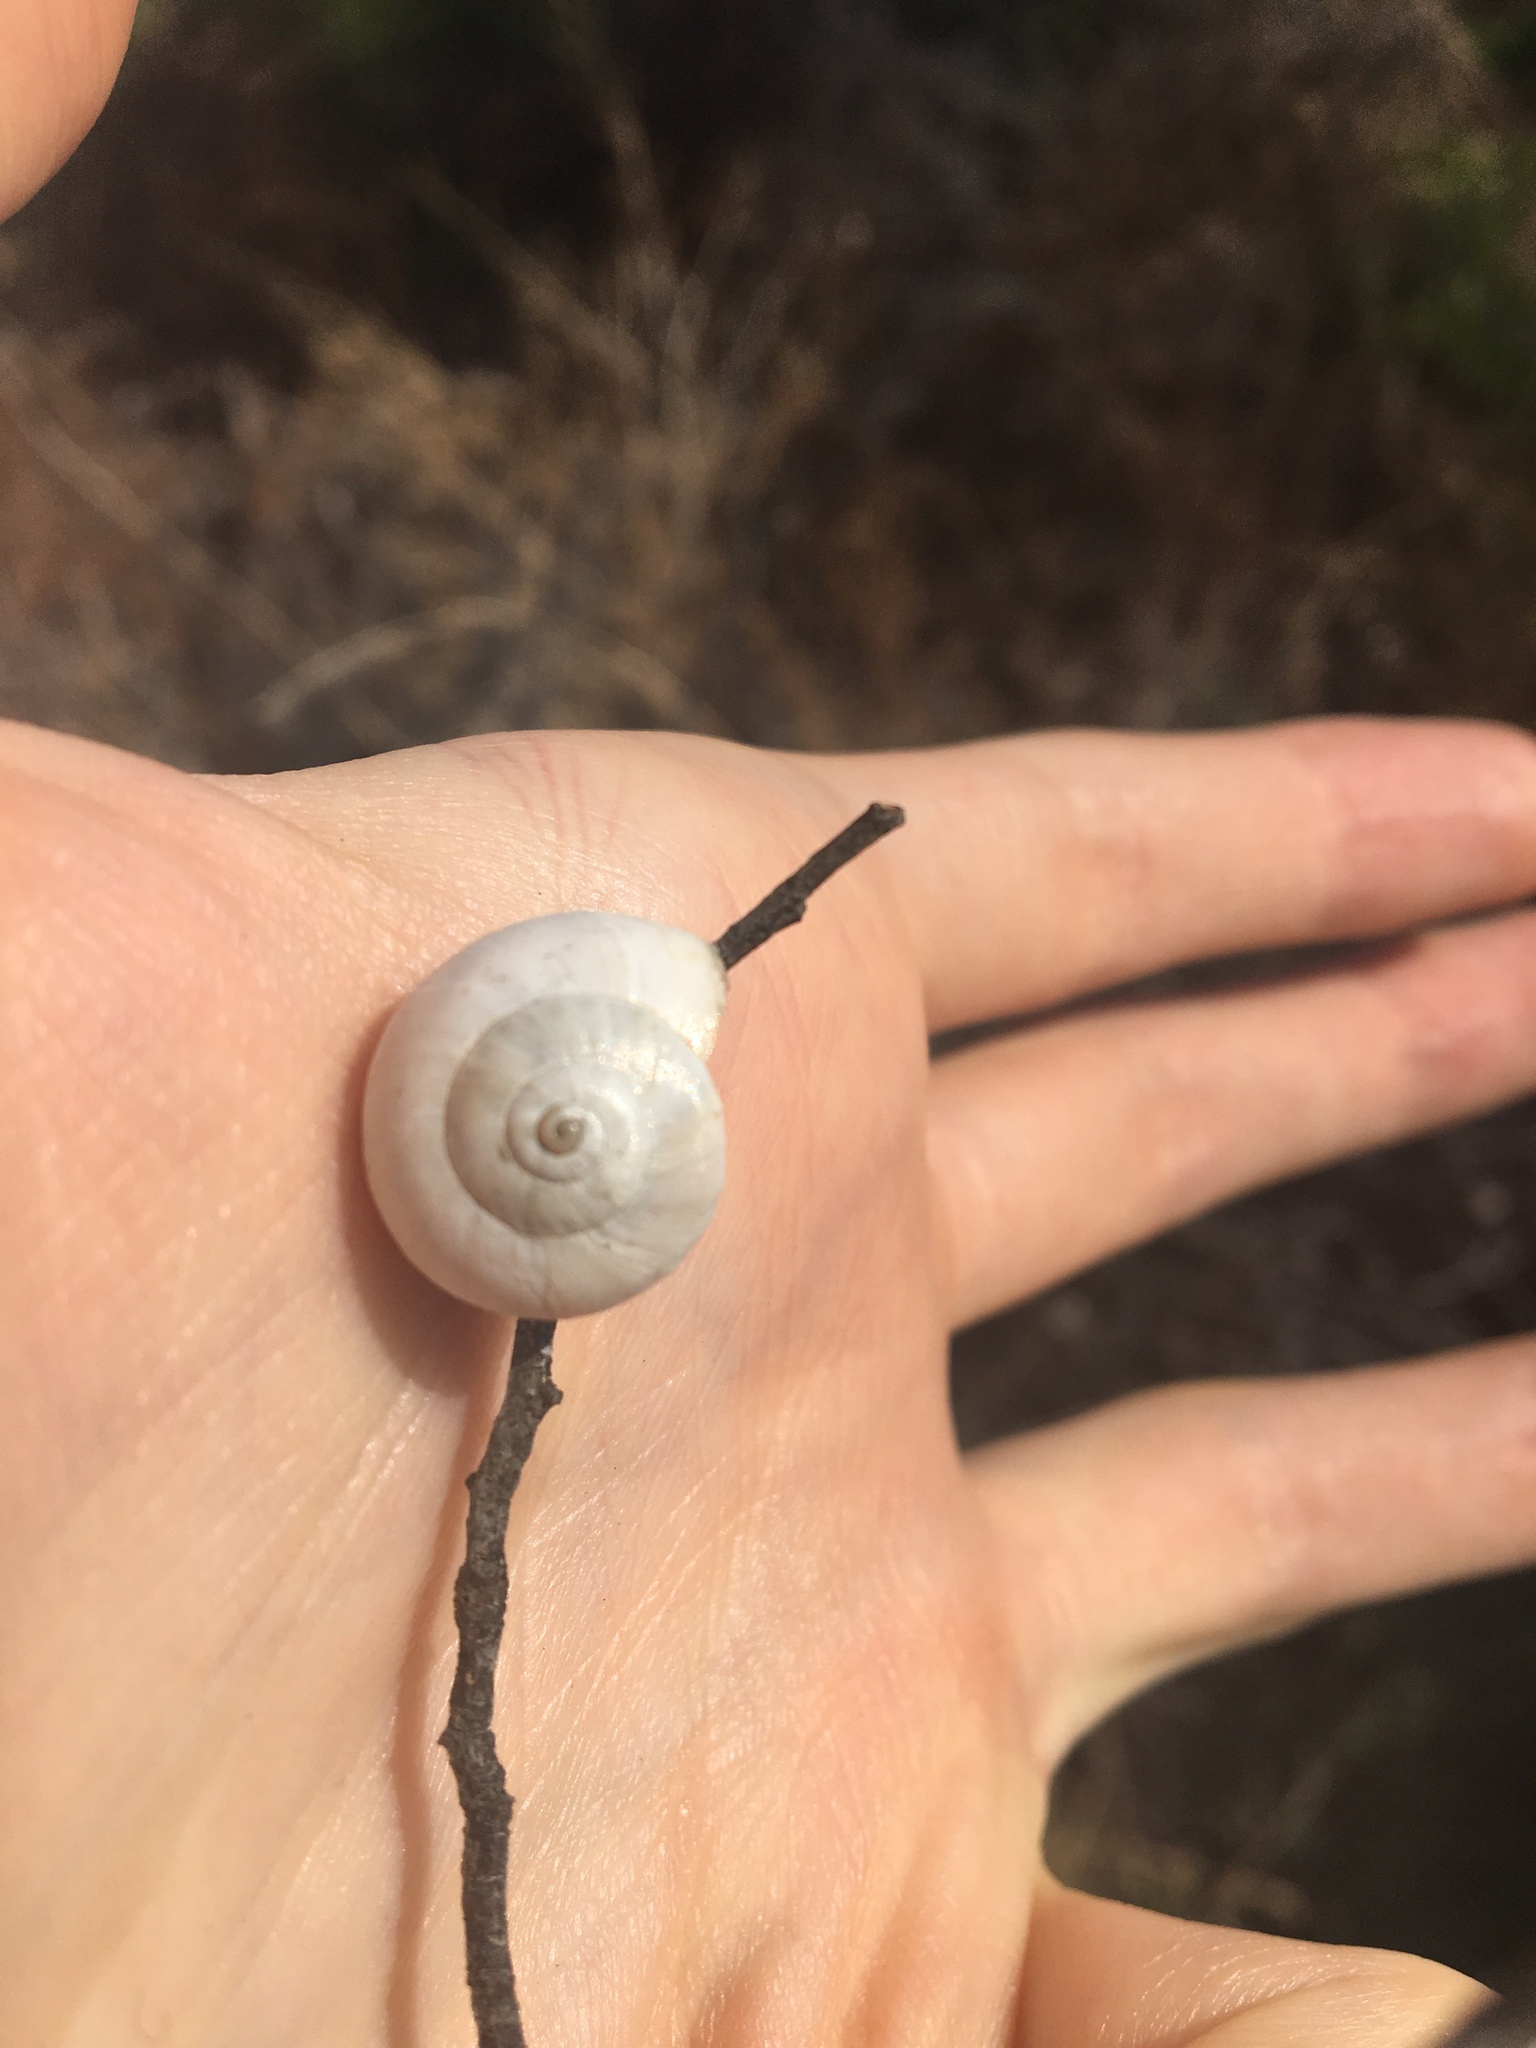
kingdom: Animalia
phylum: Mollusca
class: Gastropoda
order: Stylommatophora
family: Helicidae
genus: Theba
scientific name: Theba pisana
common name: White snail
